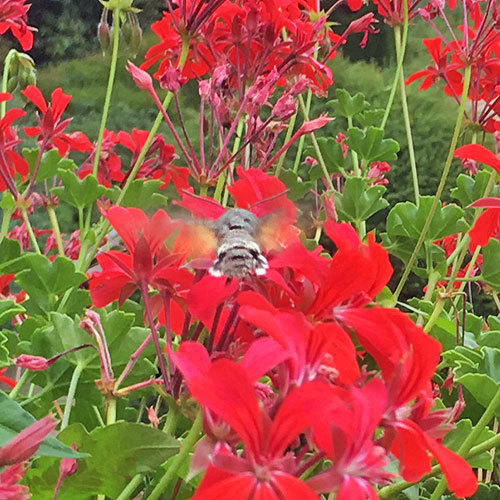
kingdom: Animalia
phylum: Arthropoda
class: Insecta
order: Lepidoptera
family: Sphingidae
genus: Macroglossum
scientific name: Macroglossum stellatarum
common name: Humming-bird hawk-moth
